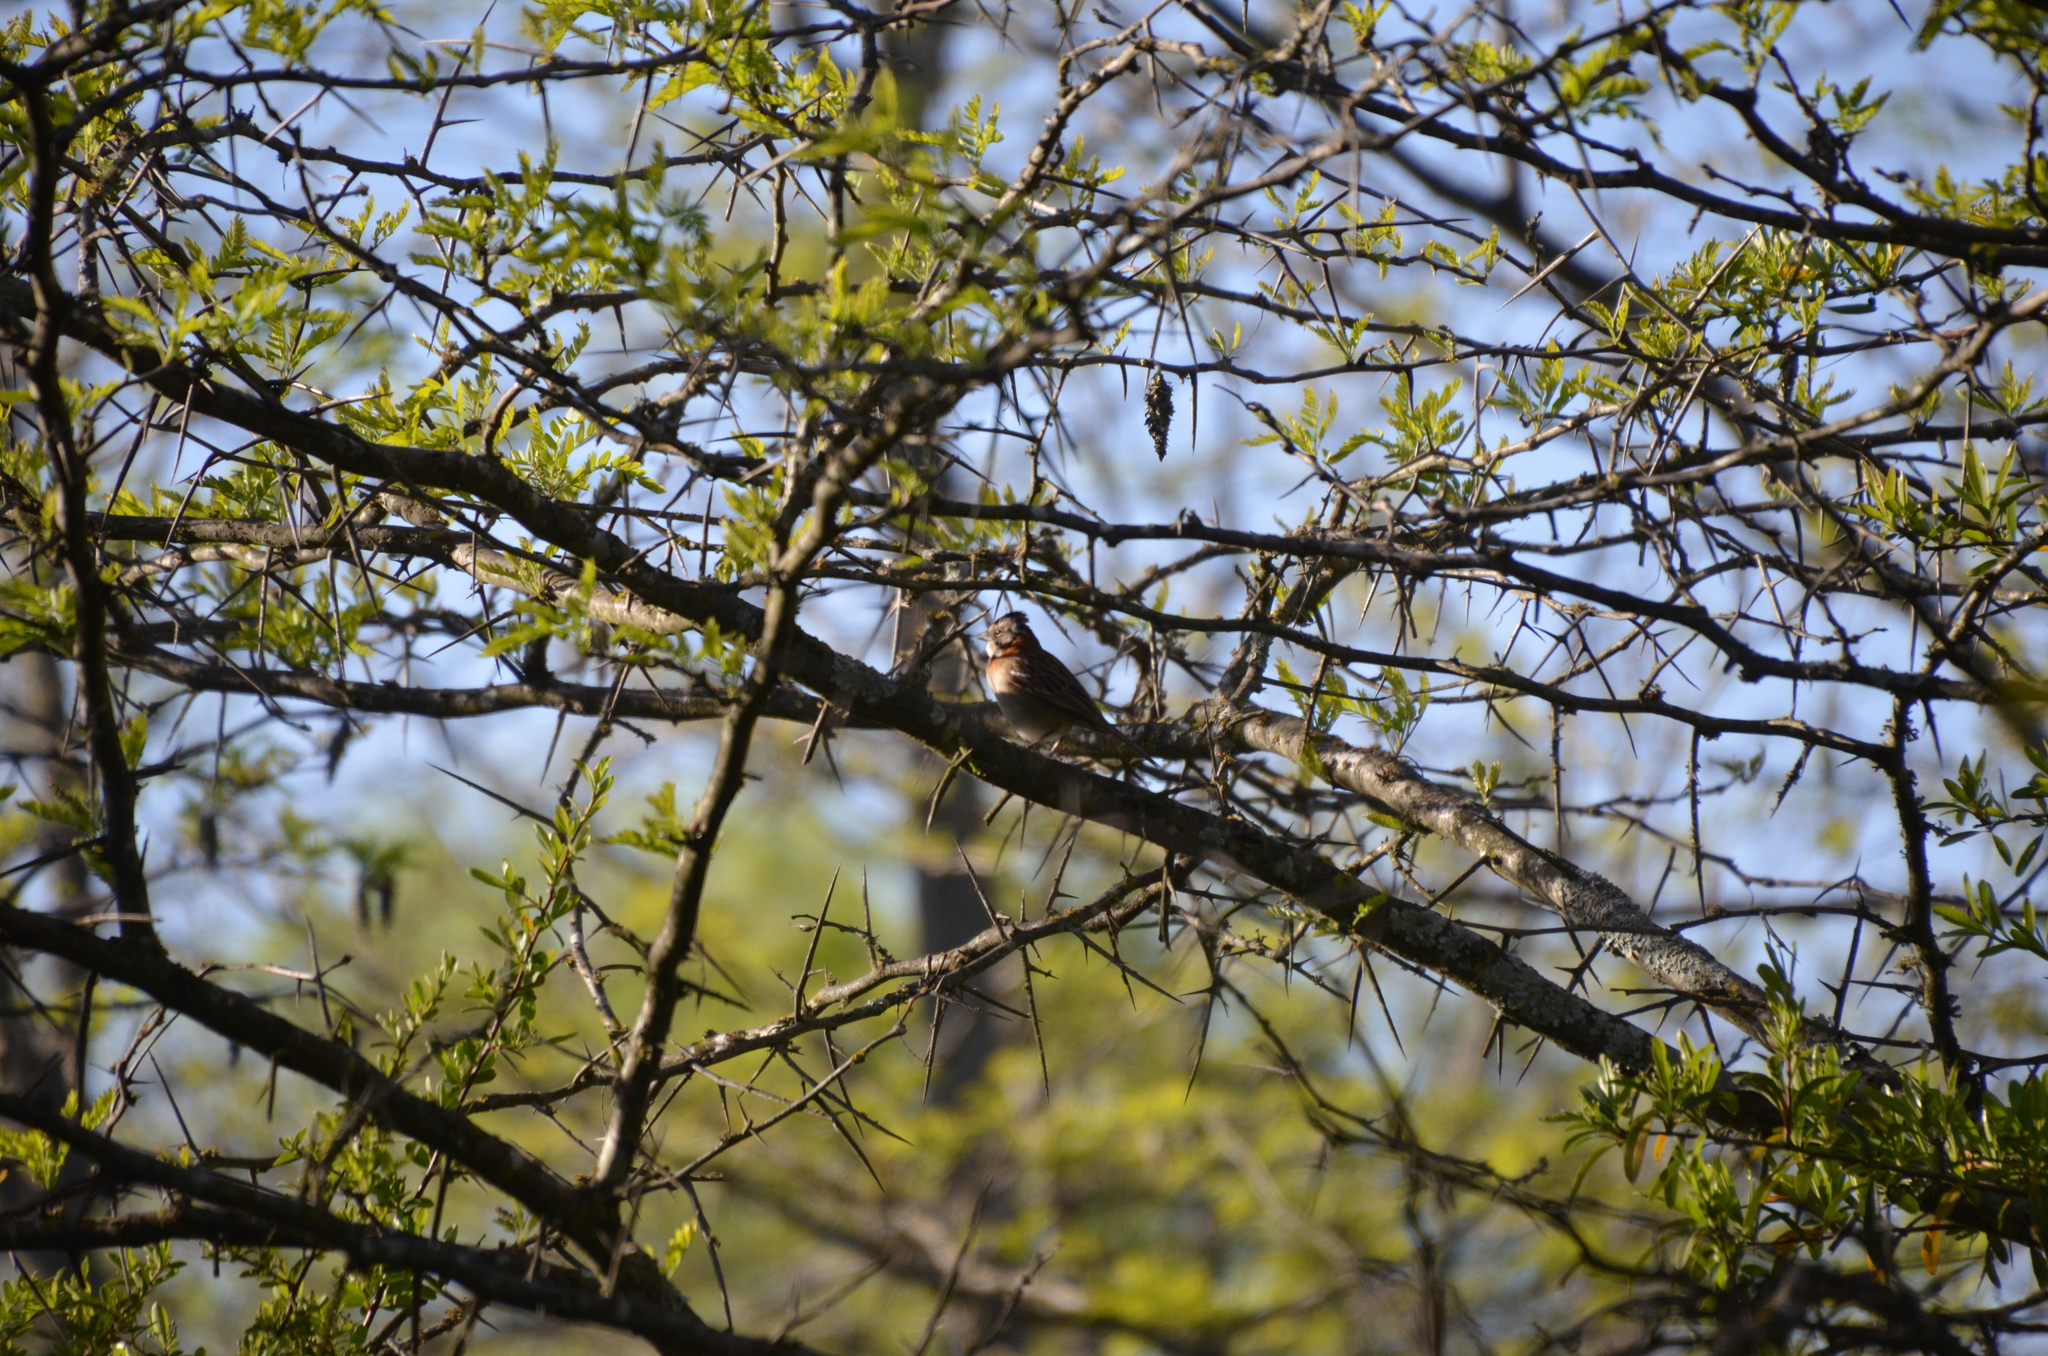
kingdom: Animalia
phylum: Chordata
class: Aves
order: Passeriformes
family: Passerellidae
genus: Zonotrichia
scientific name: Zonotrichia capensis
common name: Rufous-collared sparrow
